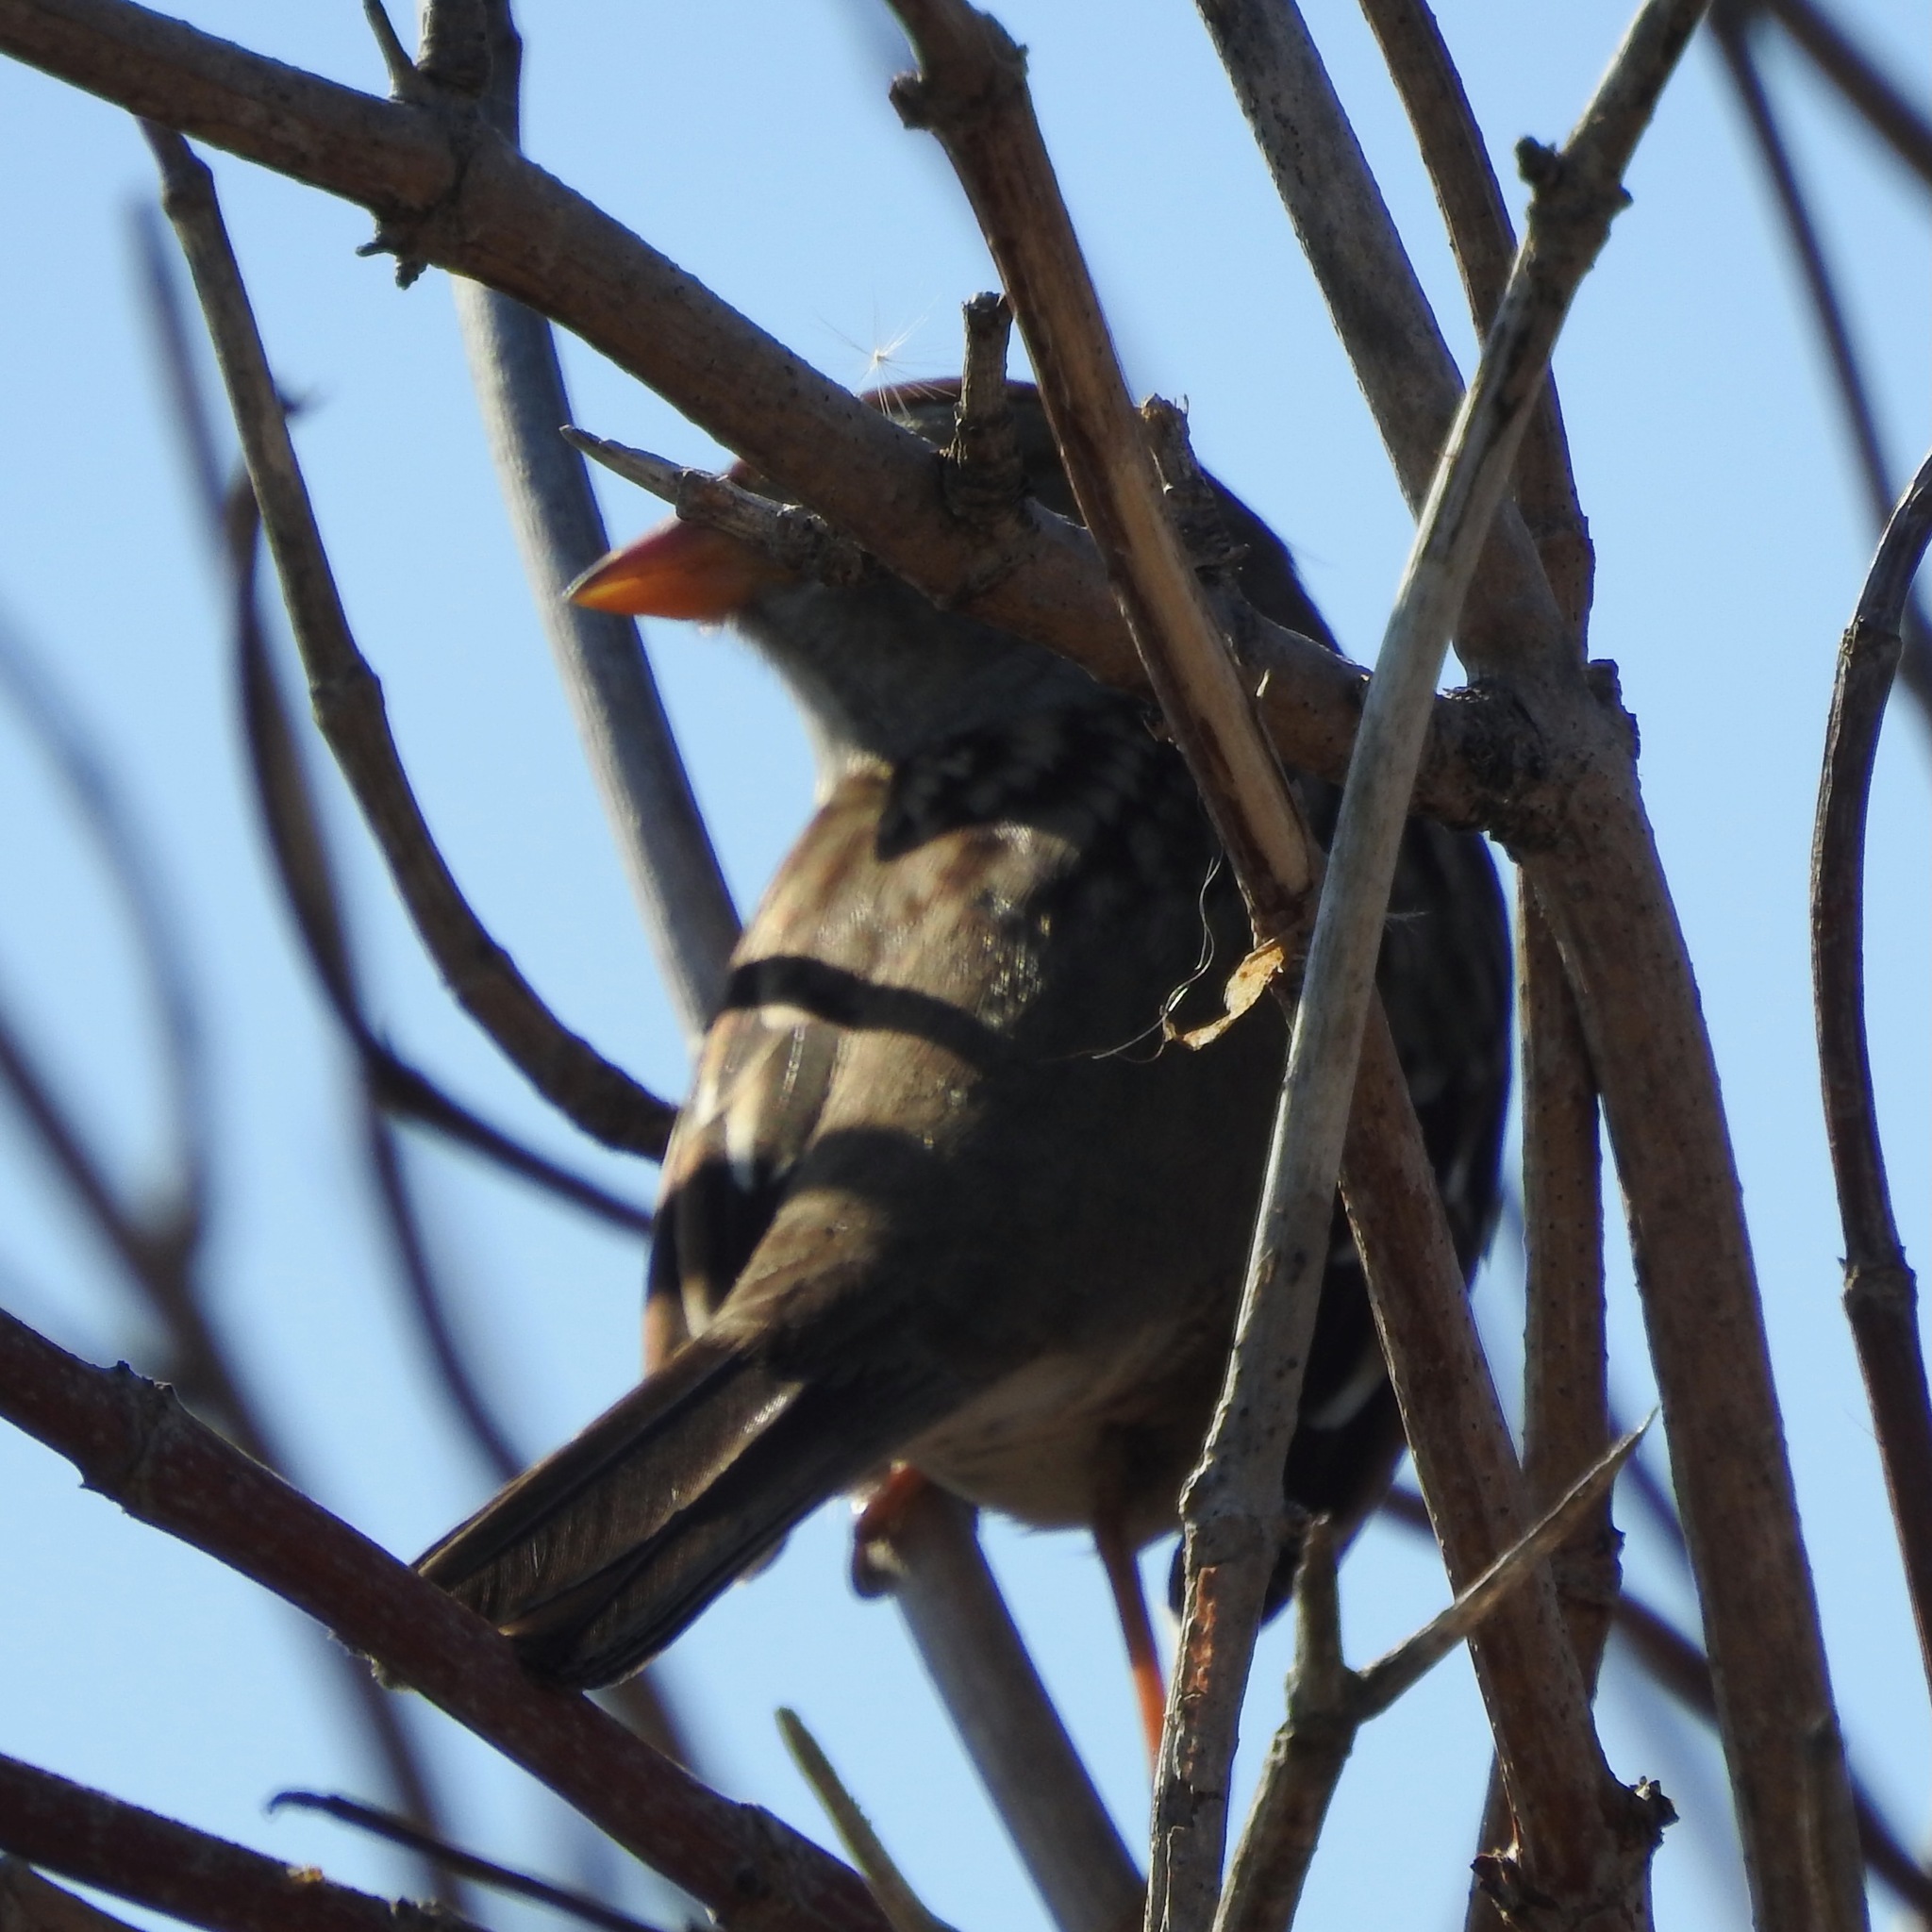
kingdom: Animalia
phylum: Chordata
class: Aves
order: Passeriformes
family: Passerellidae
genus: Zonotrichia
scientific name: Zonotrichia leucophrys
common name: White-crowned sparrow
